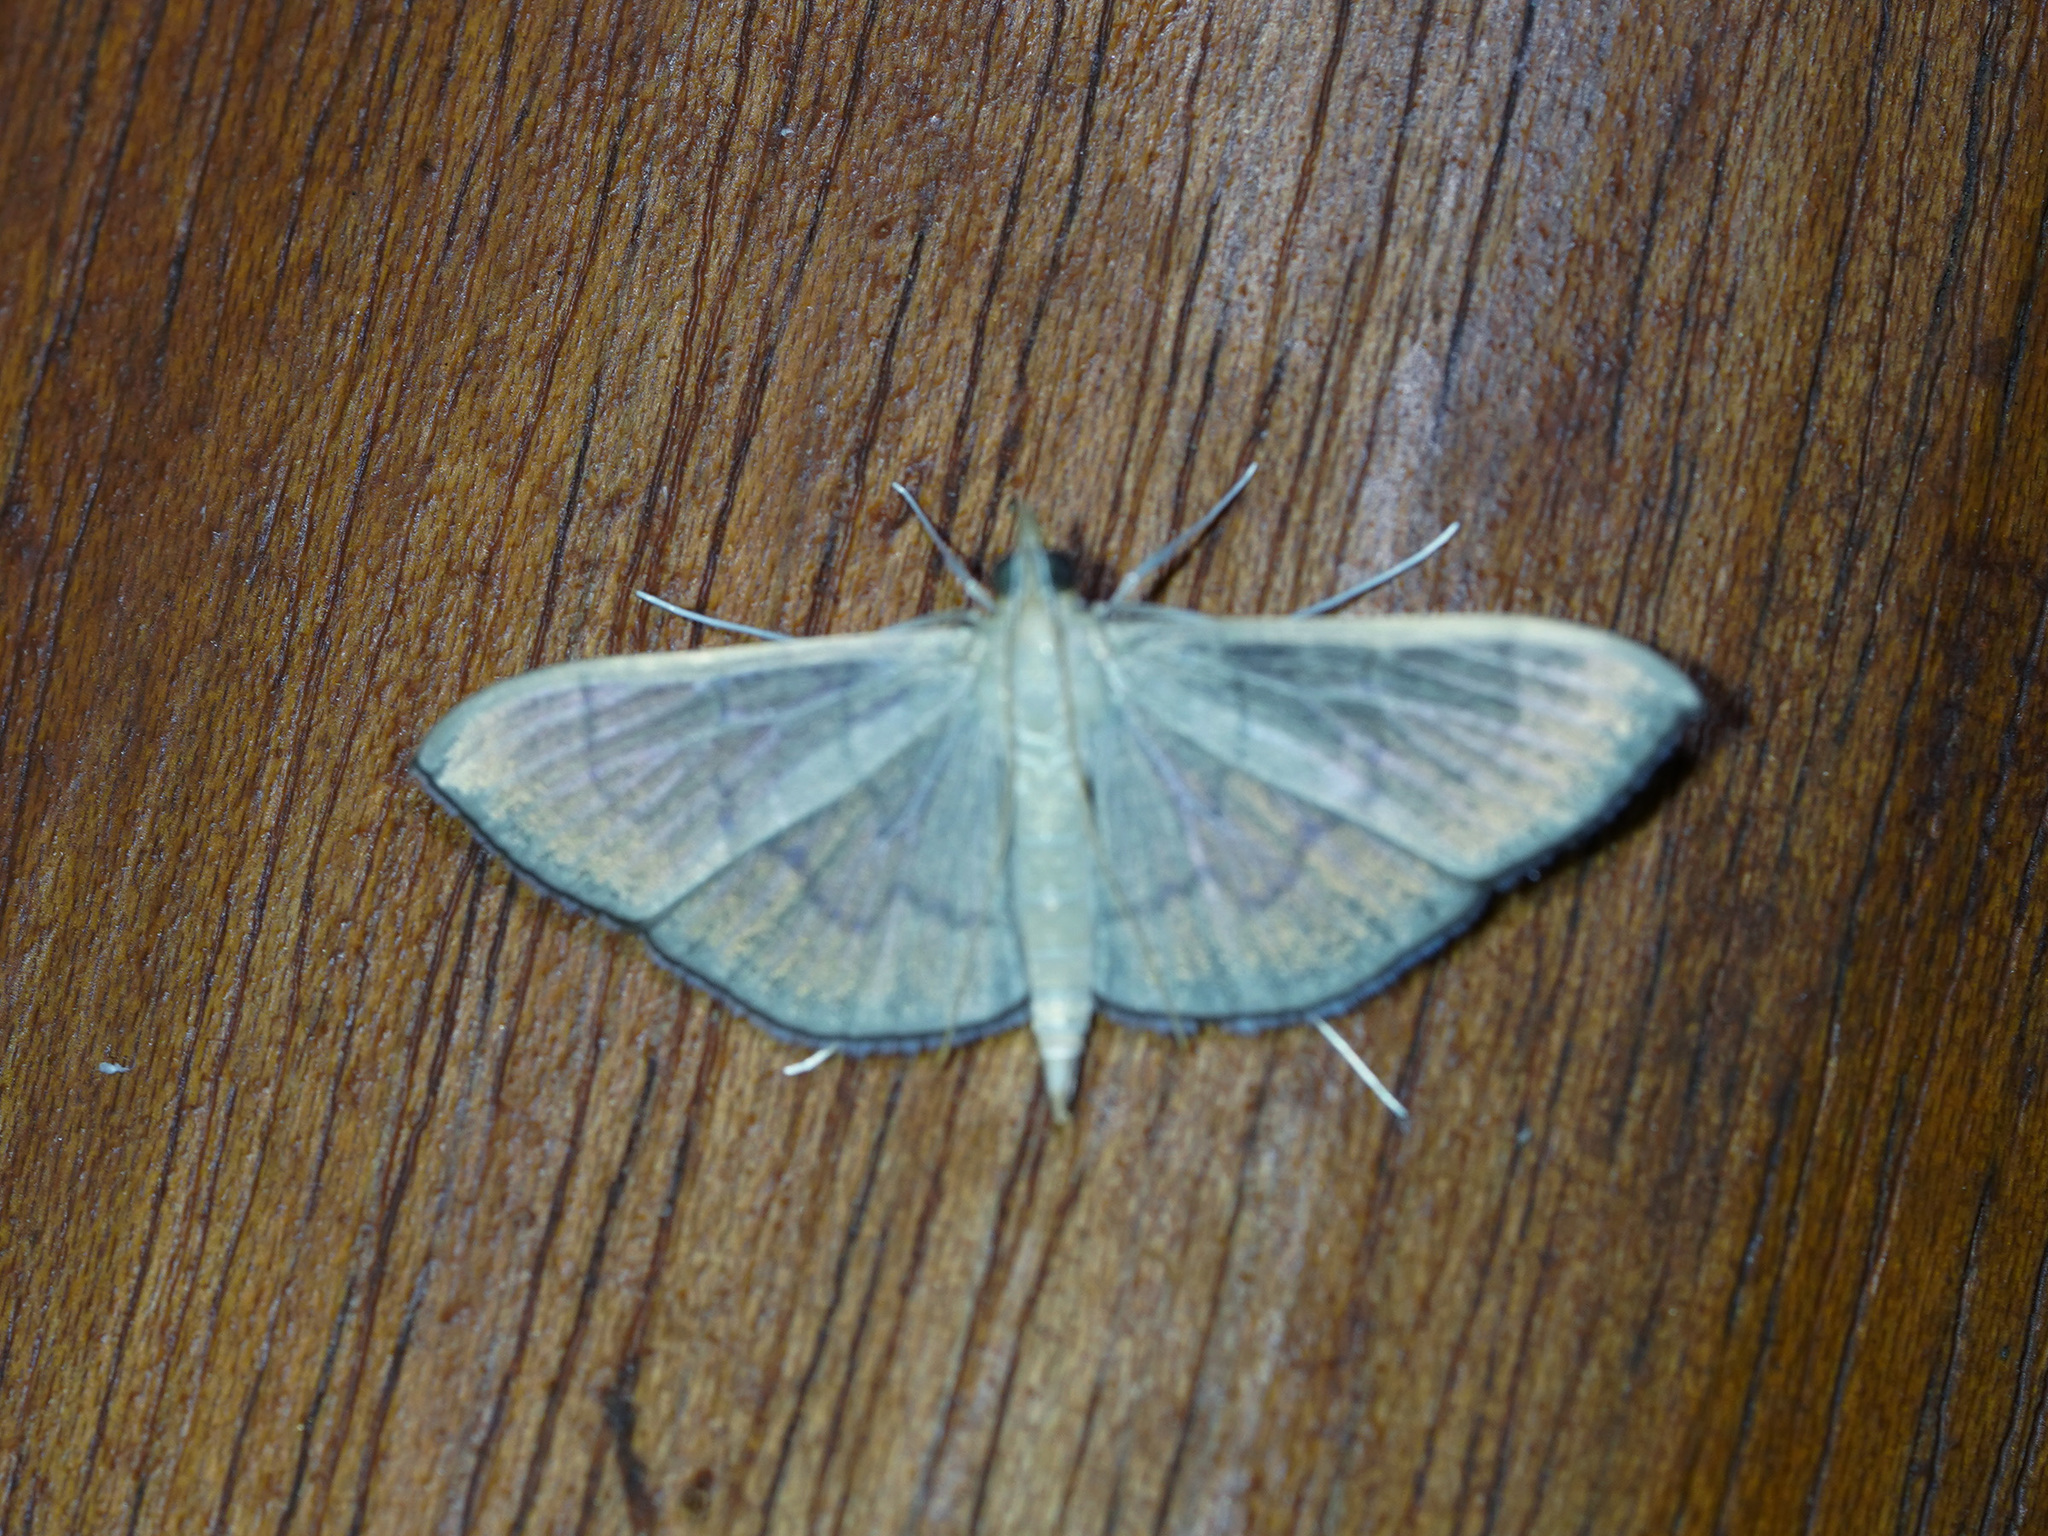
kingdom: Animalia
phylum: Arthropoda
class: Insecta
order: Lepidoptera
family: Crambidae
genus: Lamprophaia
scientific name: Lamprophaia ablactalis
